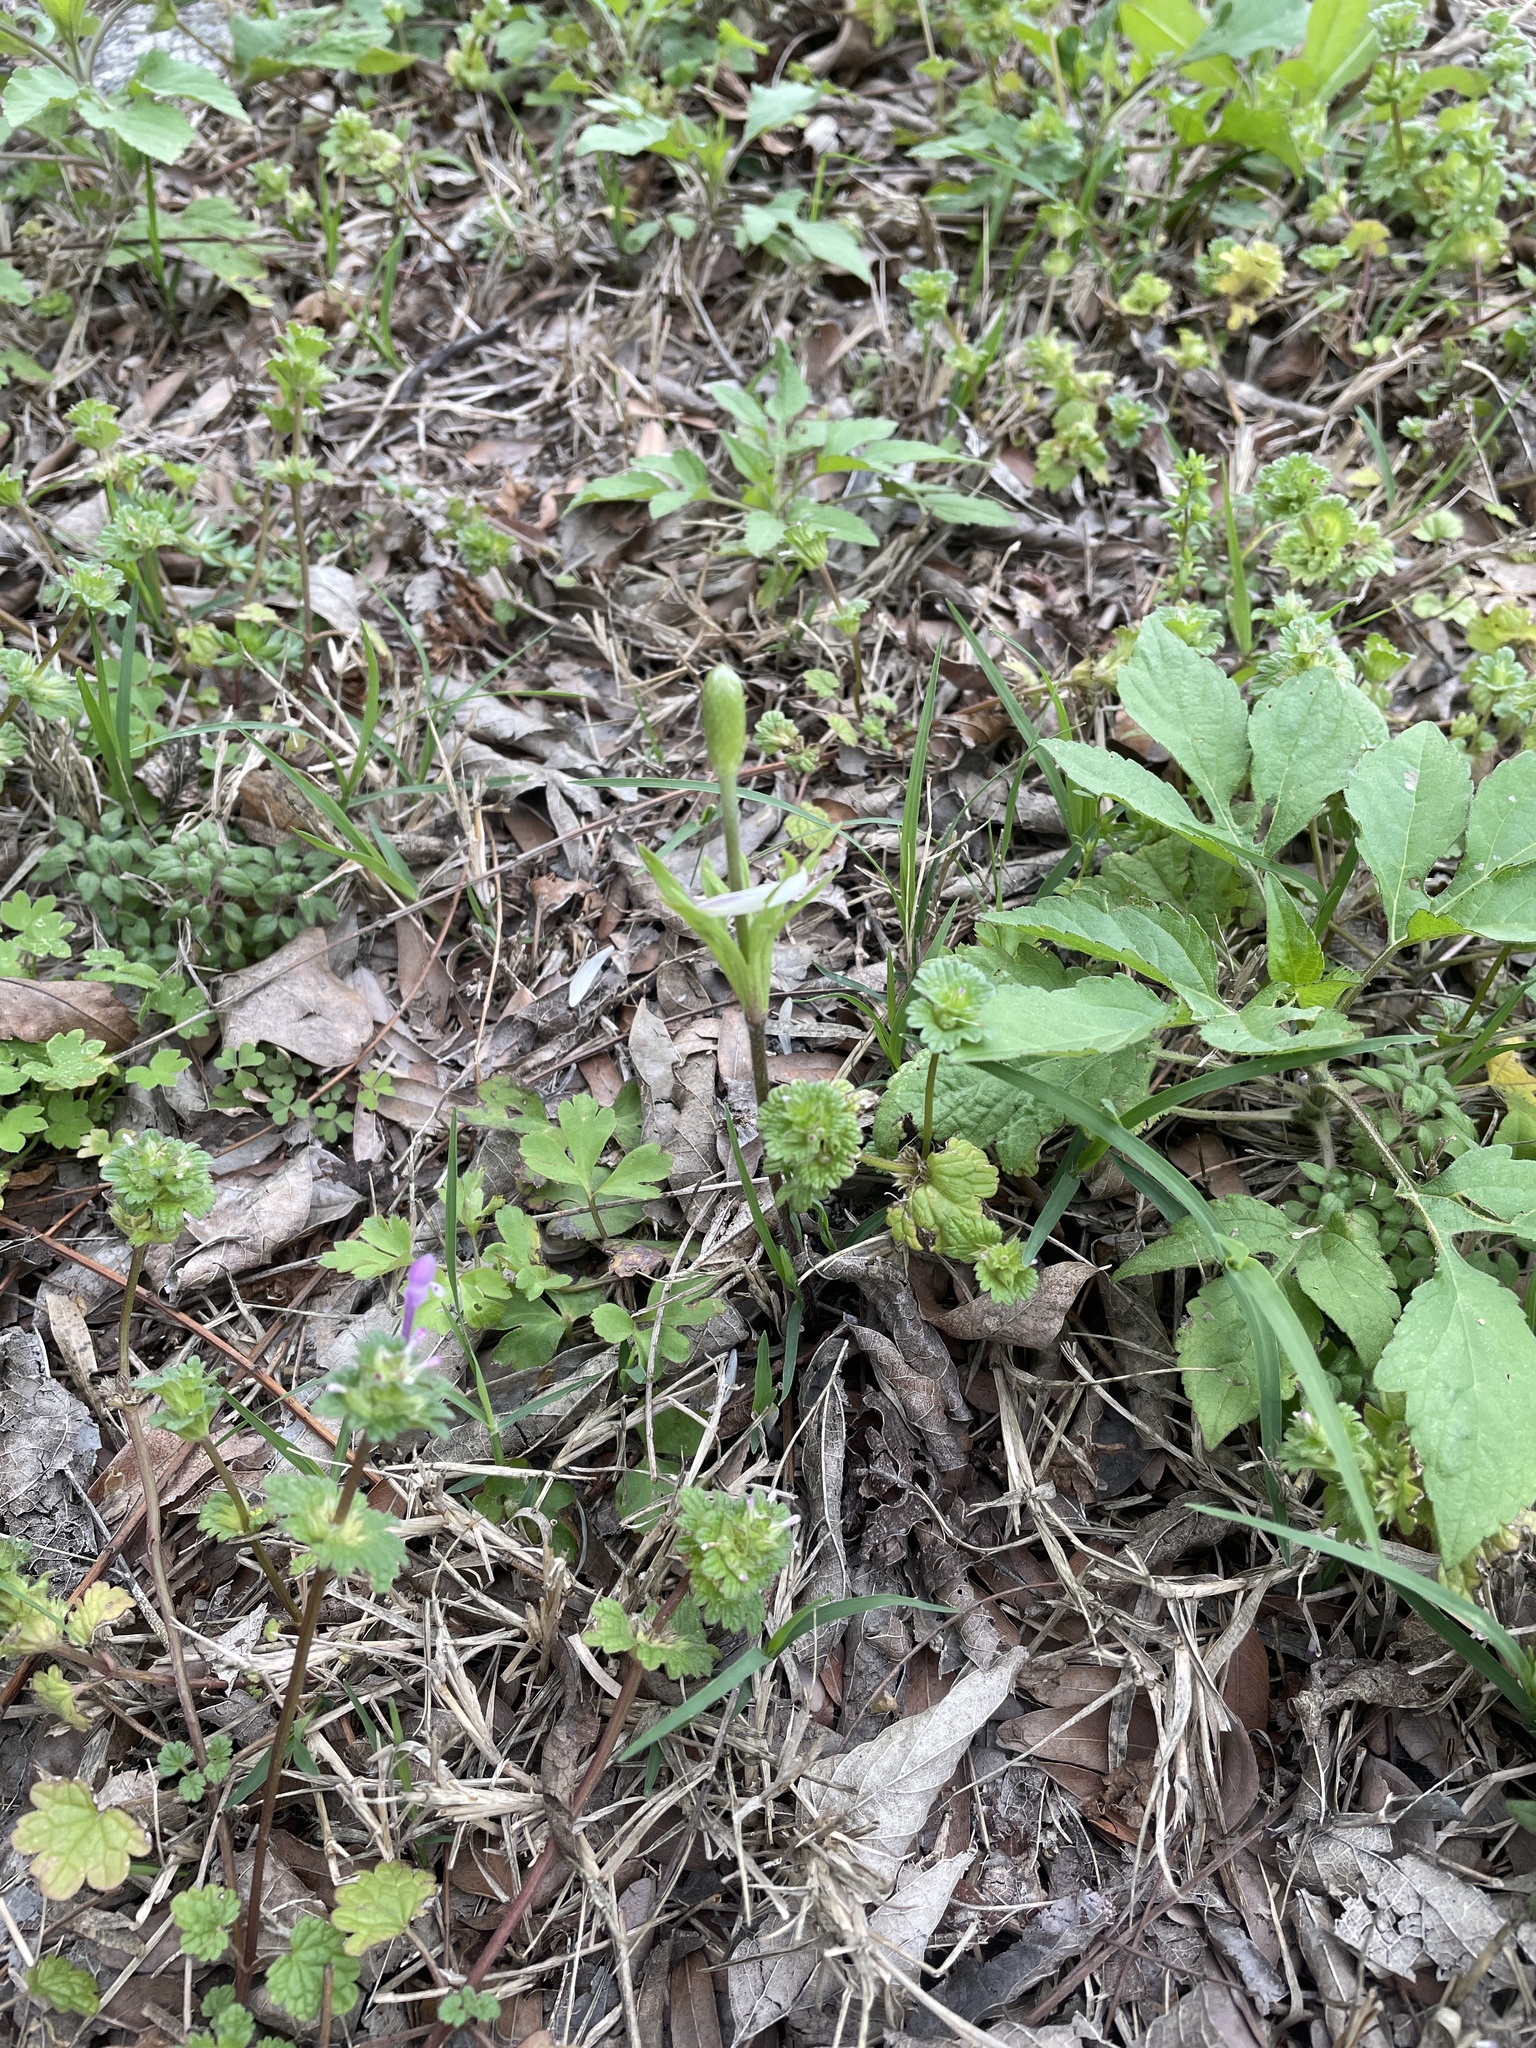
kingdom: Plantae
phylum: Tracheophyta
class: Magnoliopsida
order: Ranunculales
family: Ranunculaceae
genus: Anemone
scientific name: Anemone berlandieri
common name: Ten-petal anemone
